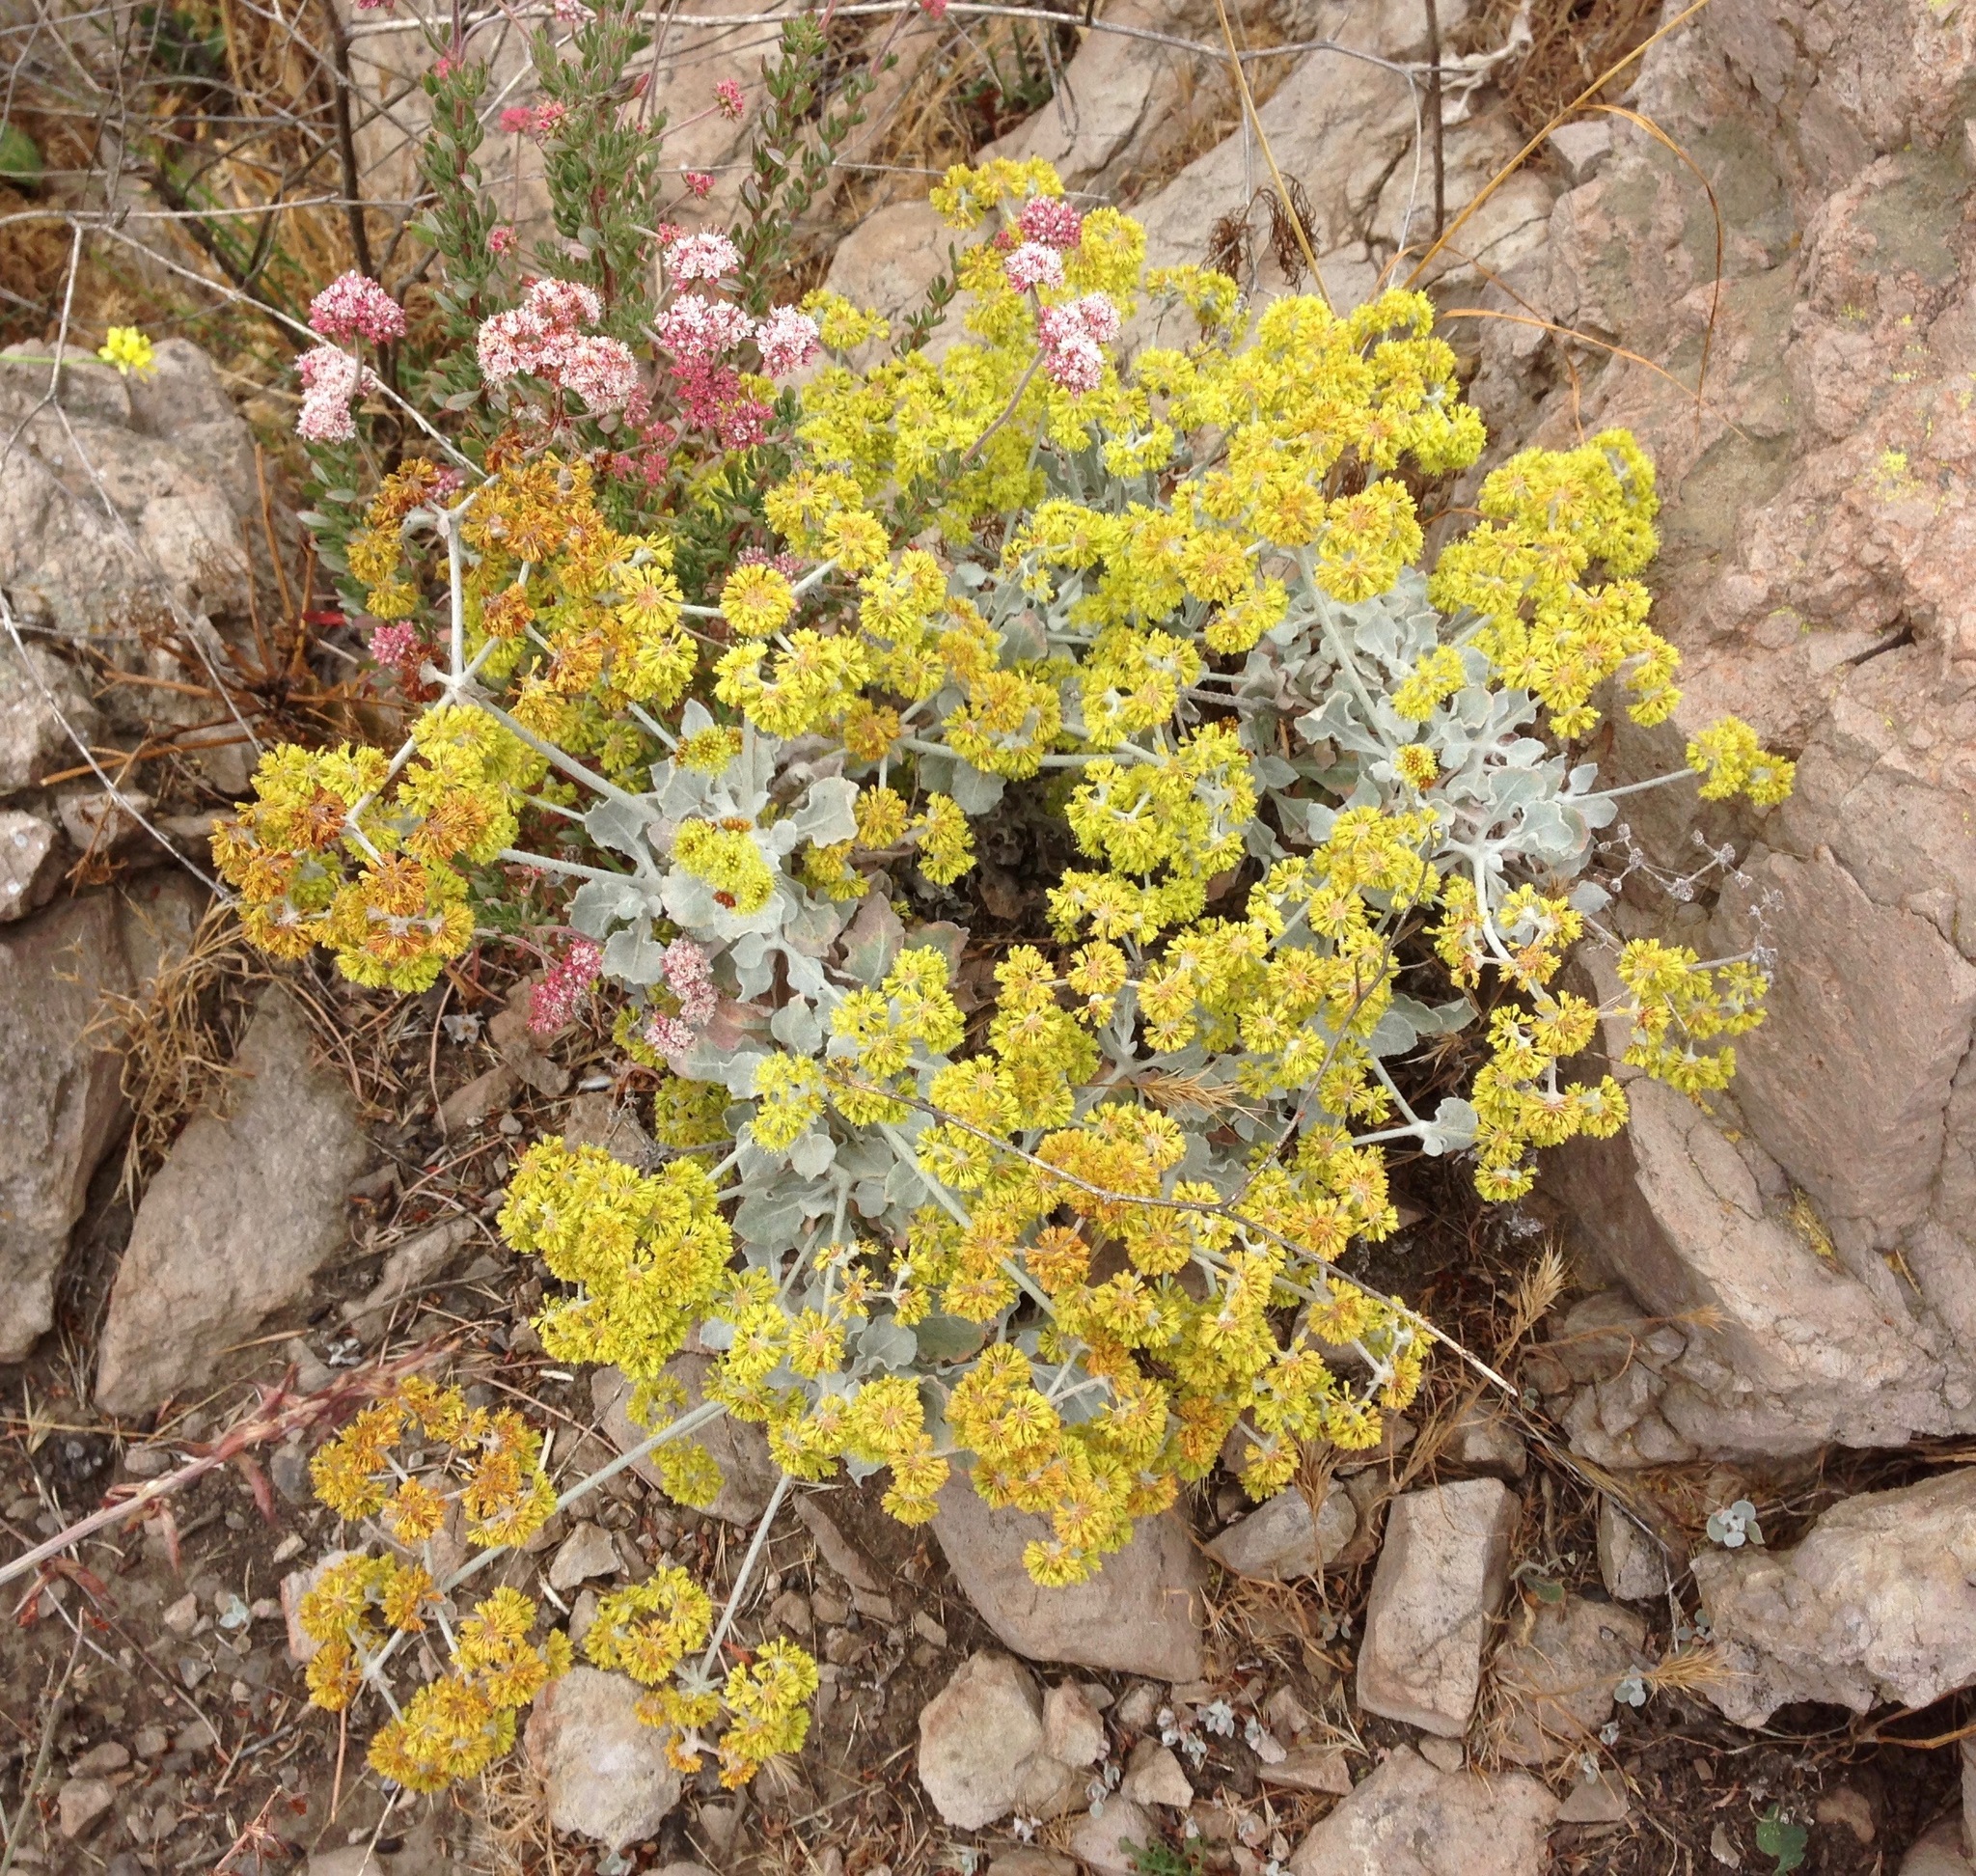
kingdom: Plantae
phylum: Tracheophyta
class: Magnoliopsida
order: Caryophyllales
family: Polygonaceae
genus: Eriogonum
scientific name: Eriogonum fasciculatum
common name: California wild buckwheat
